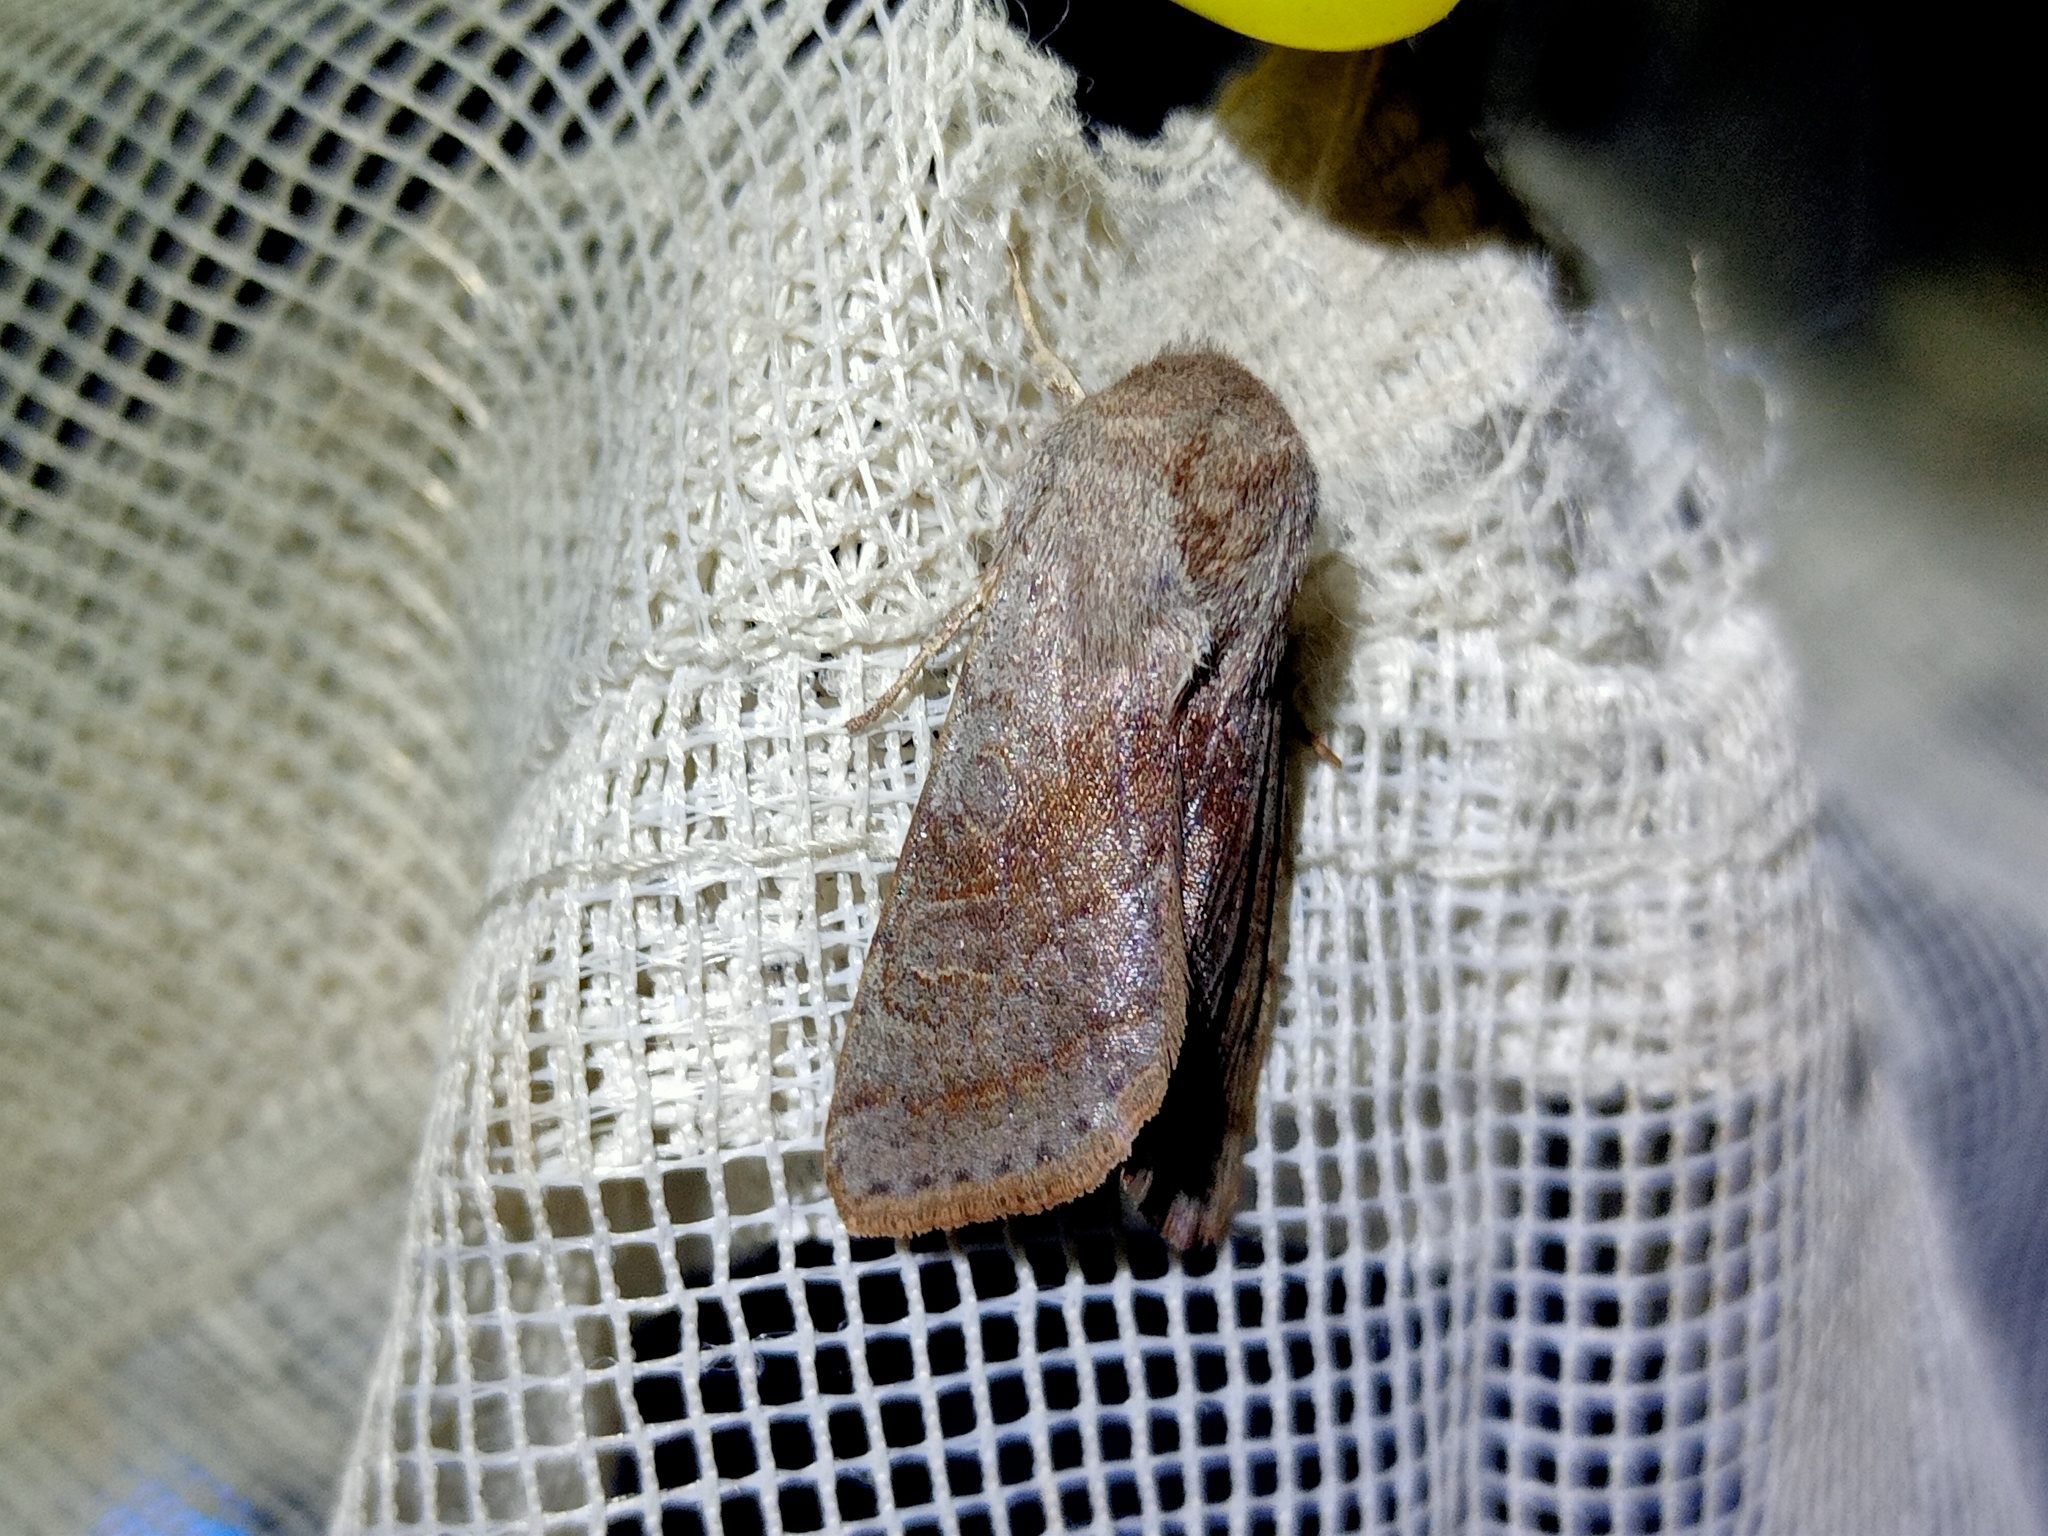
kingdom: Animalia
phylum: Arthropoda
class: Insecta
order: Lepidoptera
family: Noctuidae
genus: Orthosia
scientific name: Orthosia opima
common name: Northern drab
